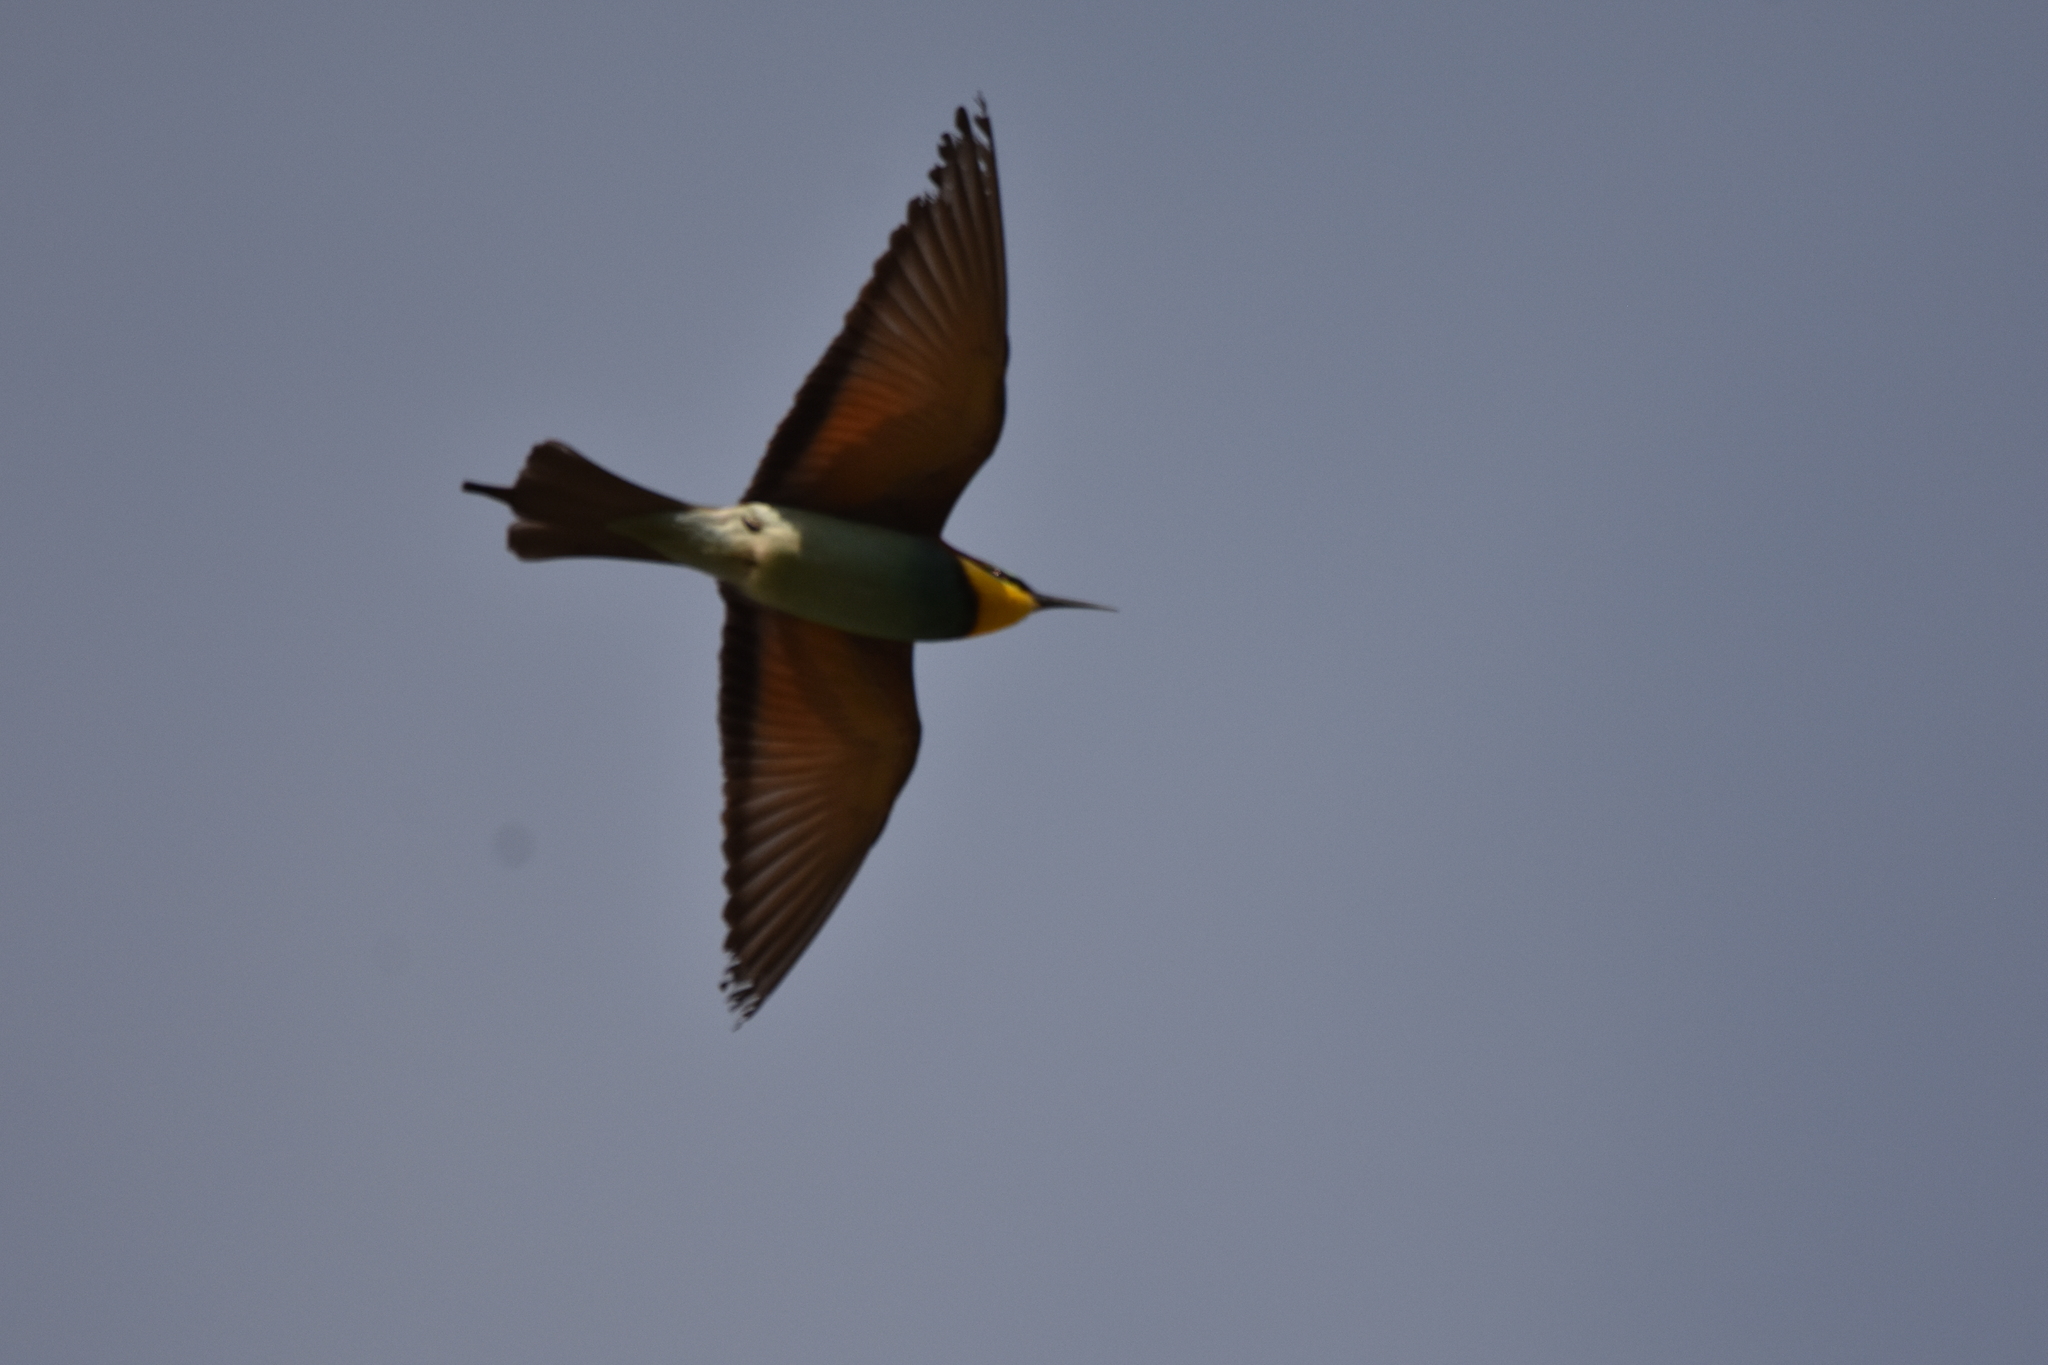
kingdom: Animalia
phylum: Chordata
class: Aves
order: Coraciiformes
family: Meropidae
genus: Merops
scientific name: Merops apiaster
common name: European bee-eater
